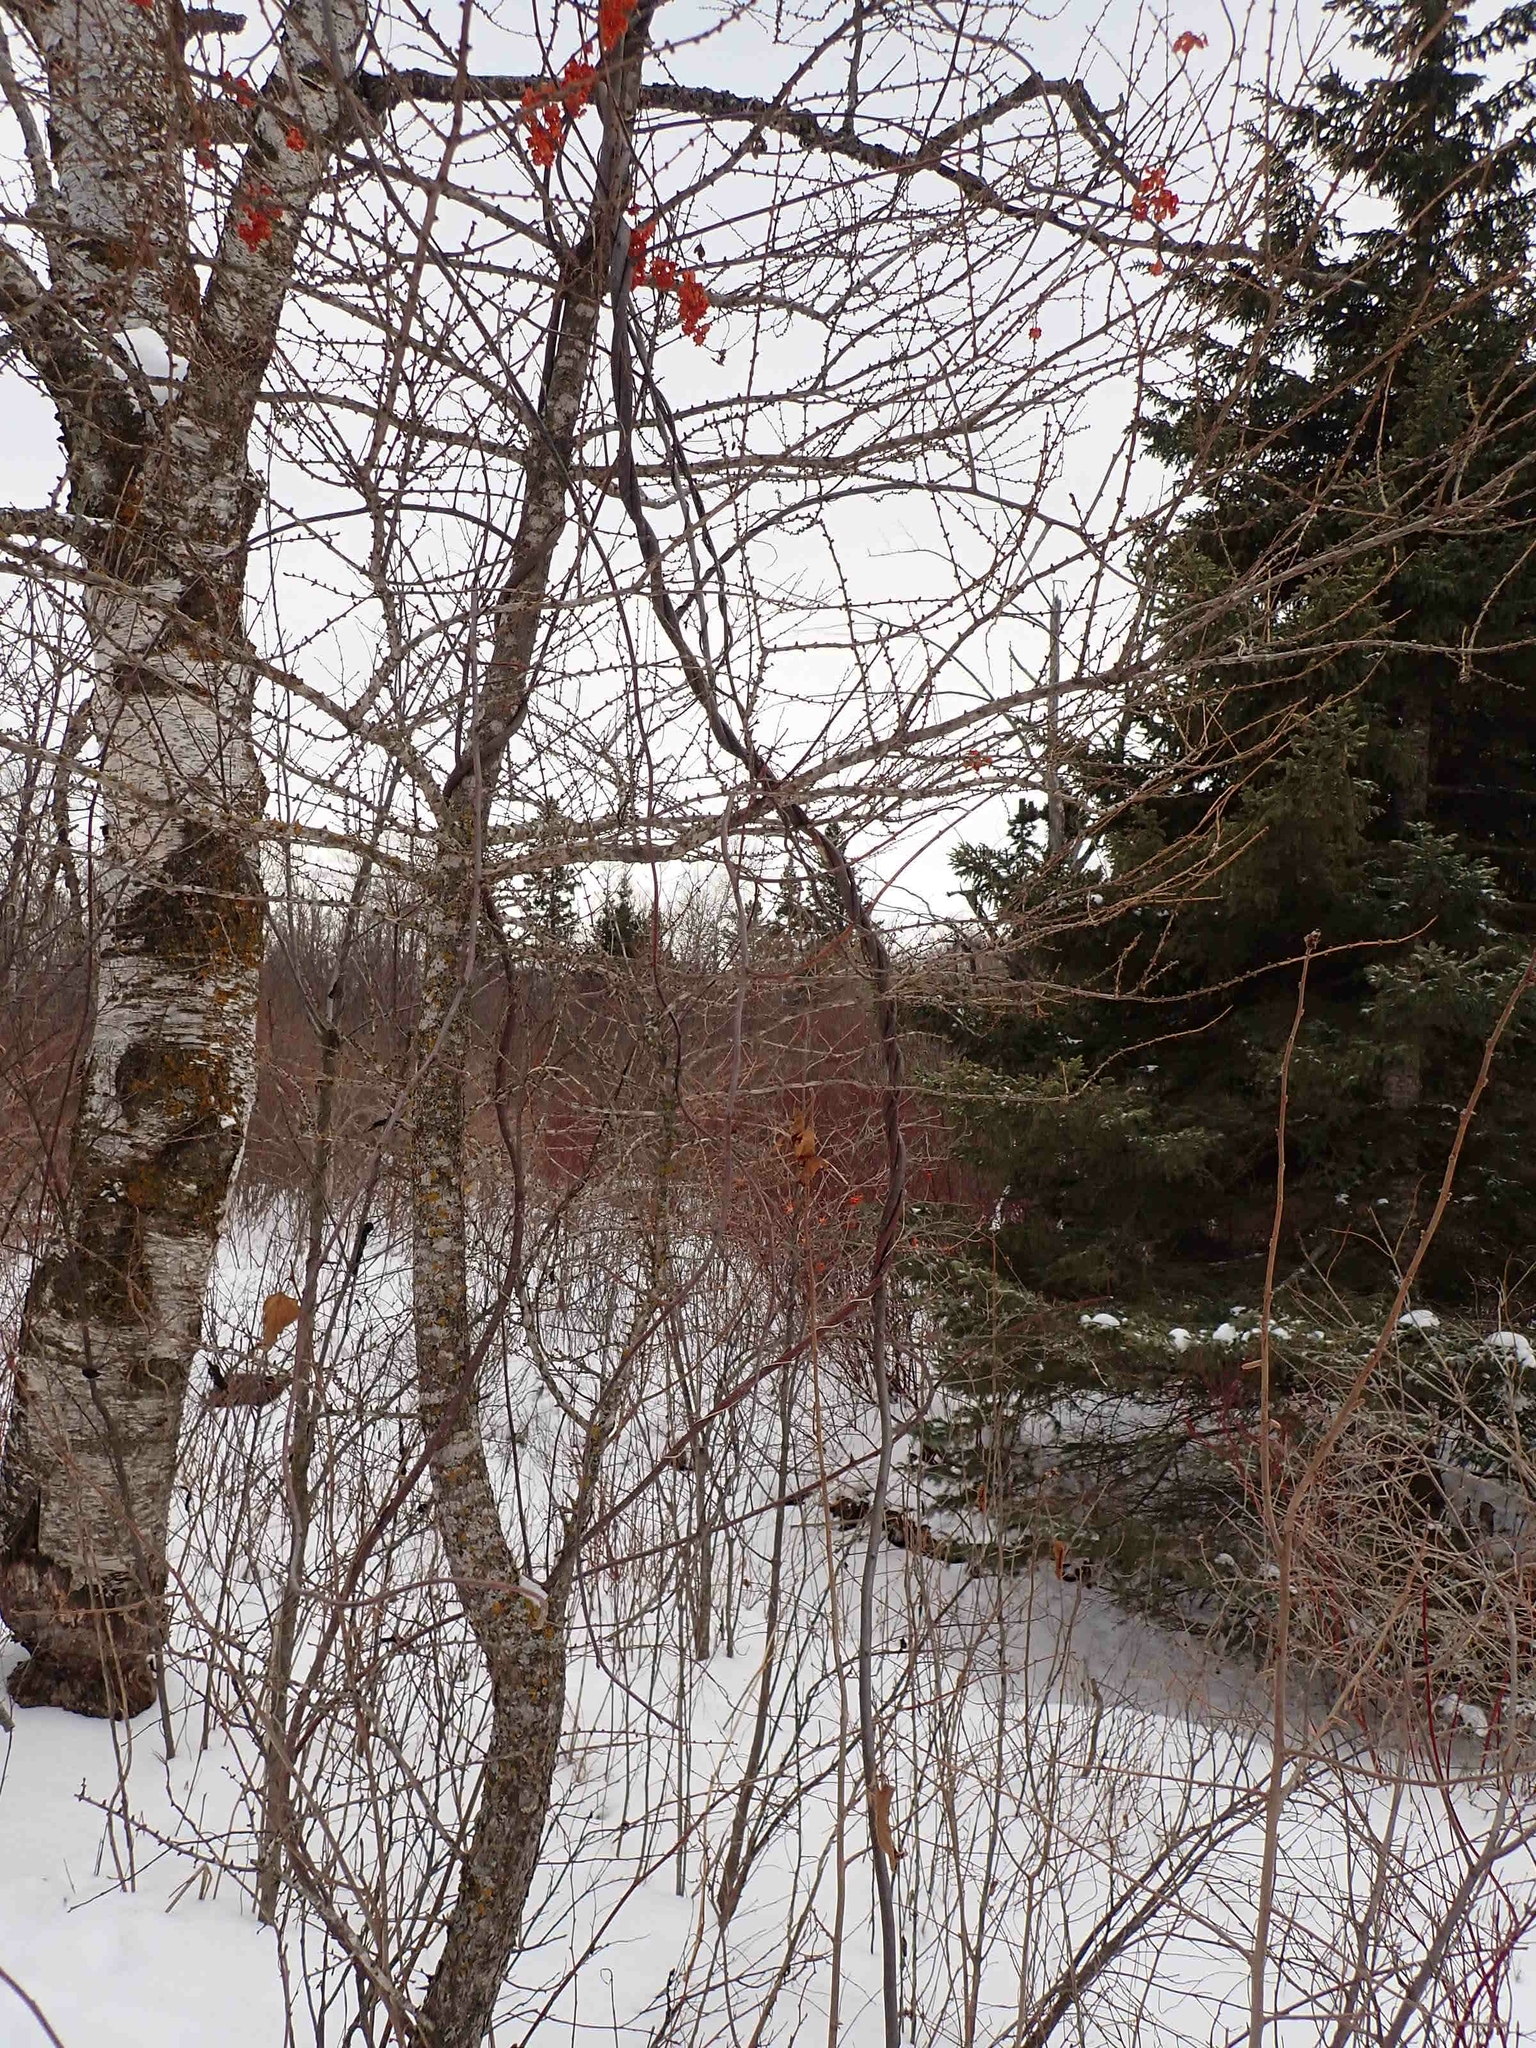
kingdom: Plantae
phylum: Tracheophyta
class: Magnoliopsida
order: Celastrales
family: Celastraceae
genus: Celastrus
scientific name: Celastrus scandens
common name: American bittersweet
